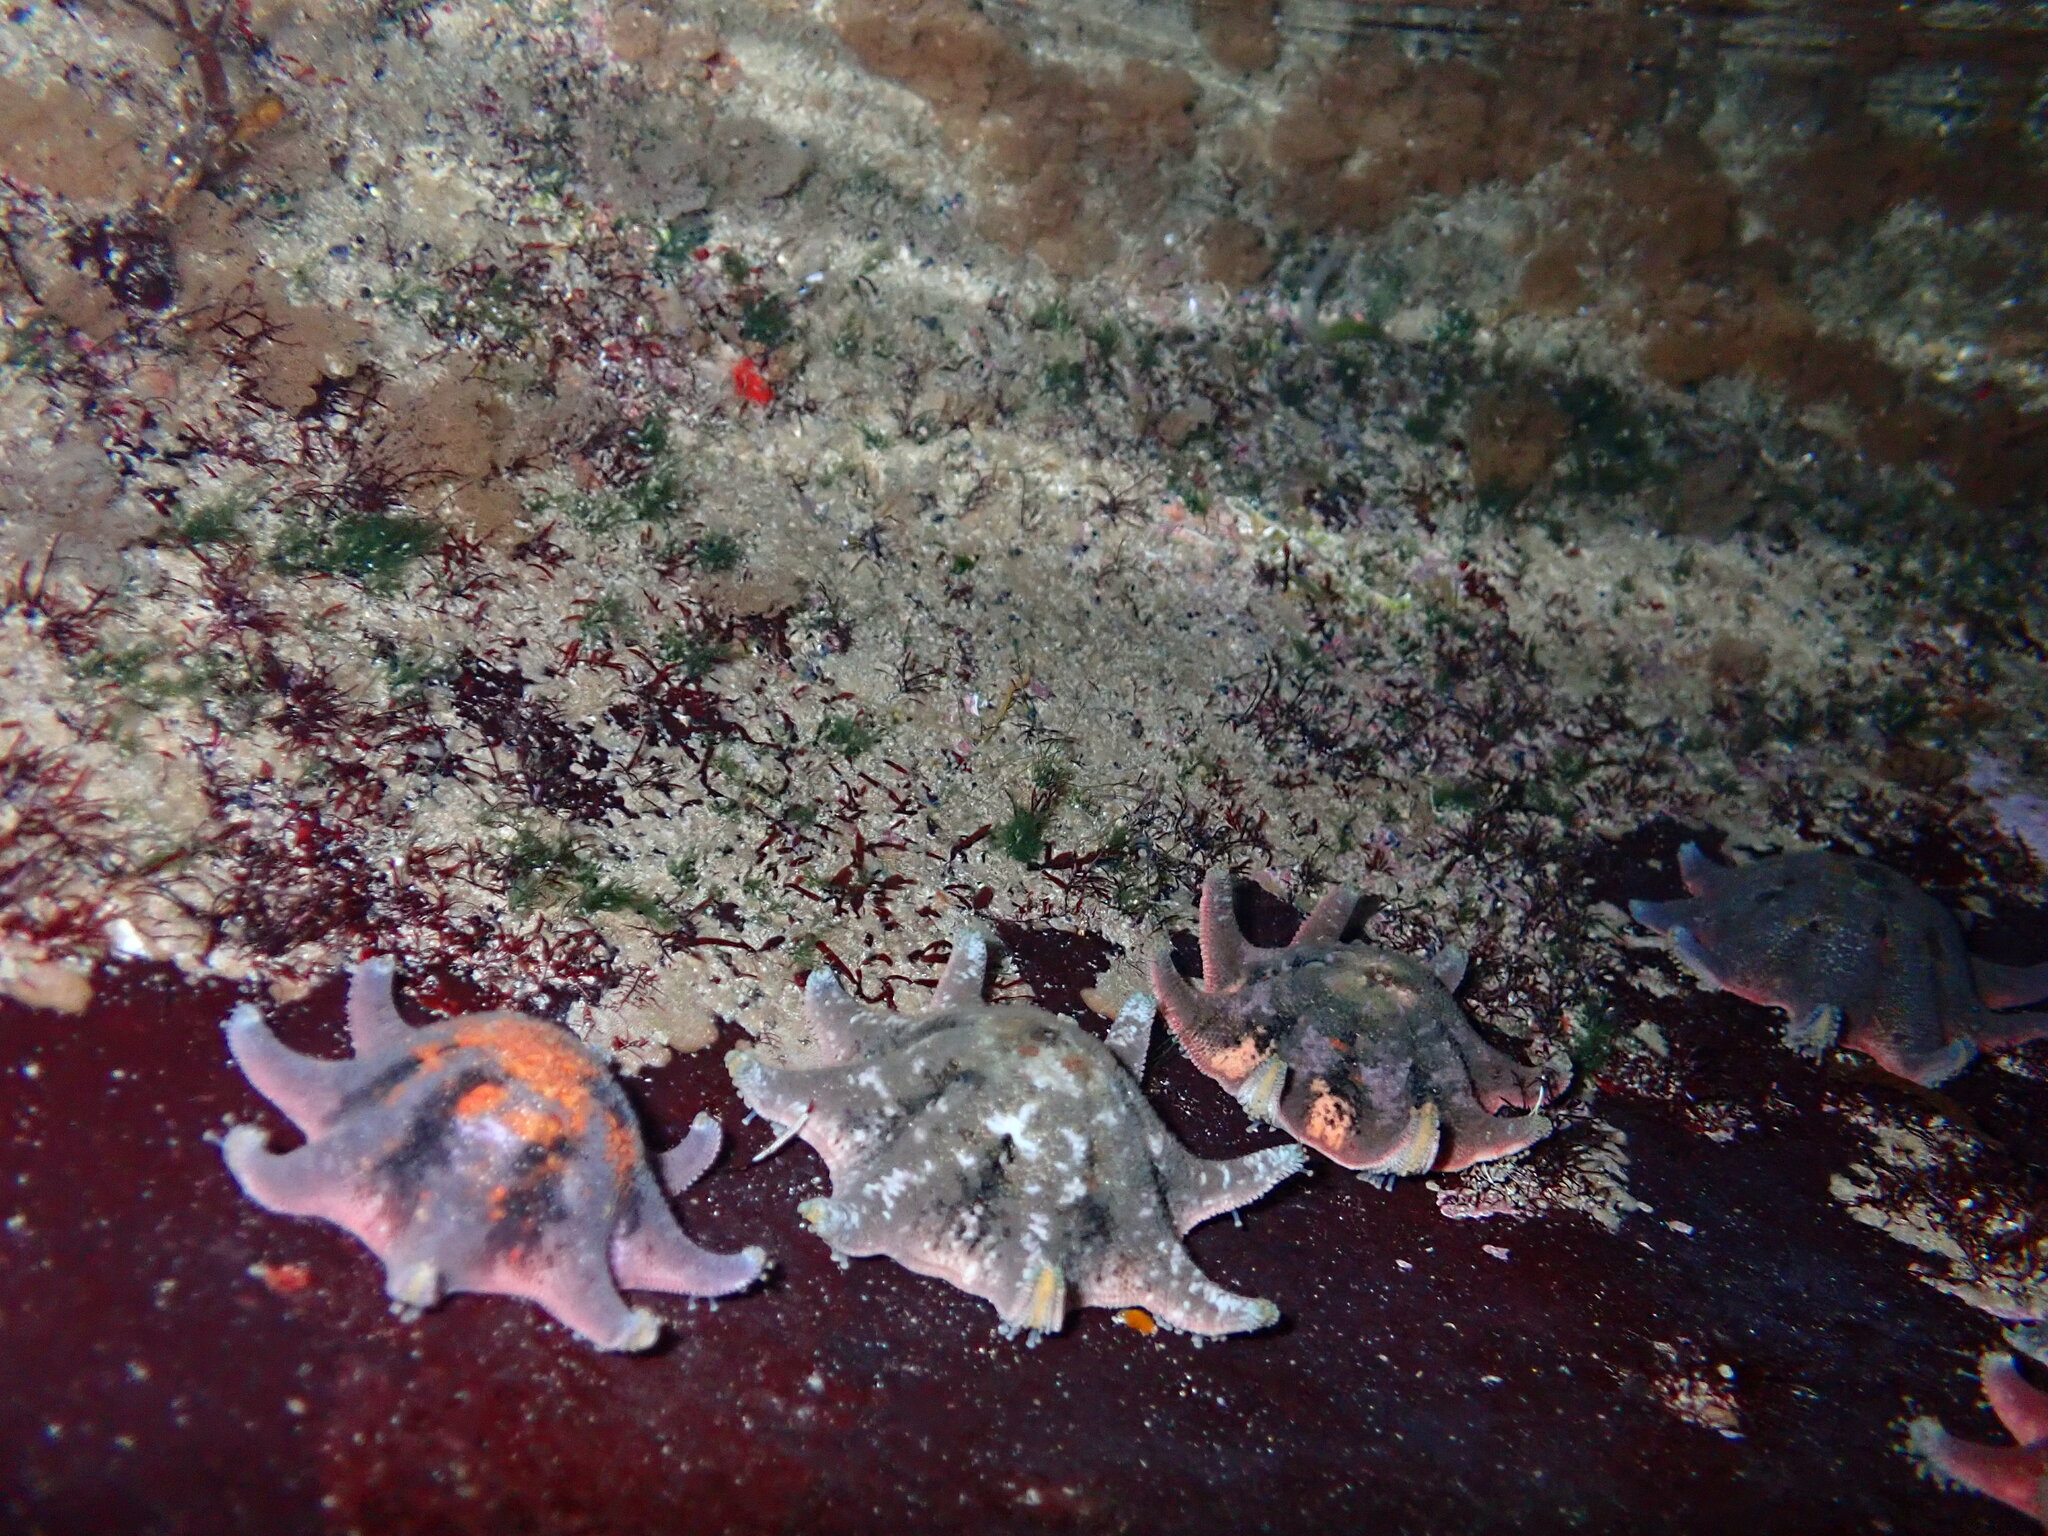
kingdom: Animalia
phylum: Echinodermata
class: Asteroidea
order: Valvatida
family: Asterinidae
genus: Meridiastra
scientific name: Meridiastra calcar
